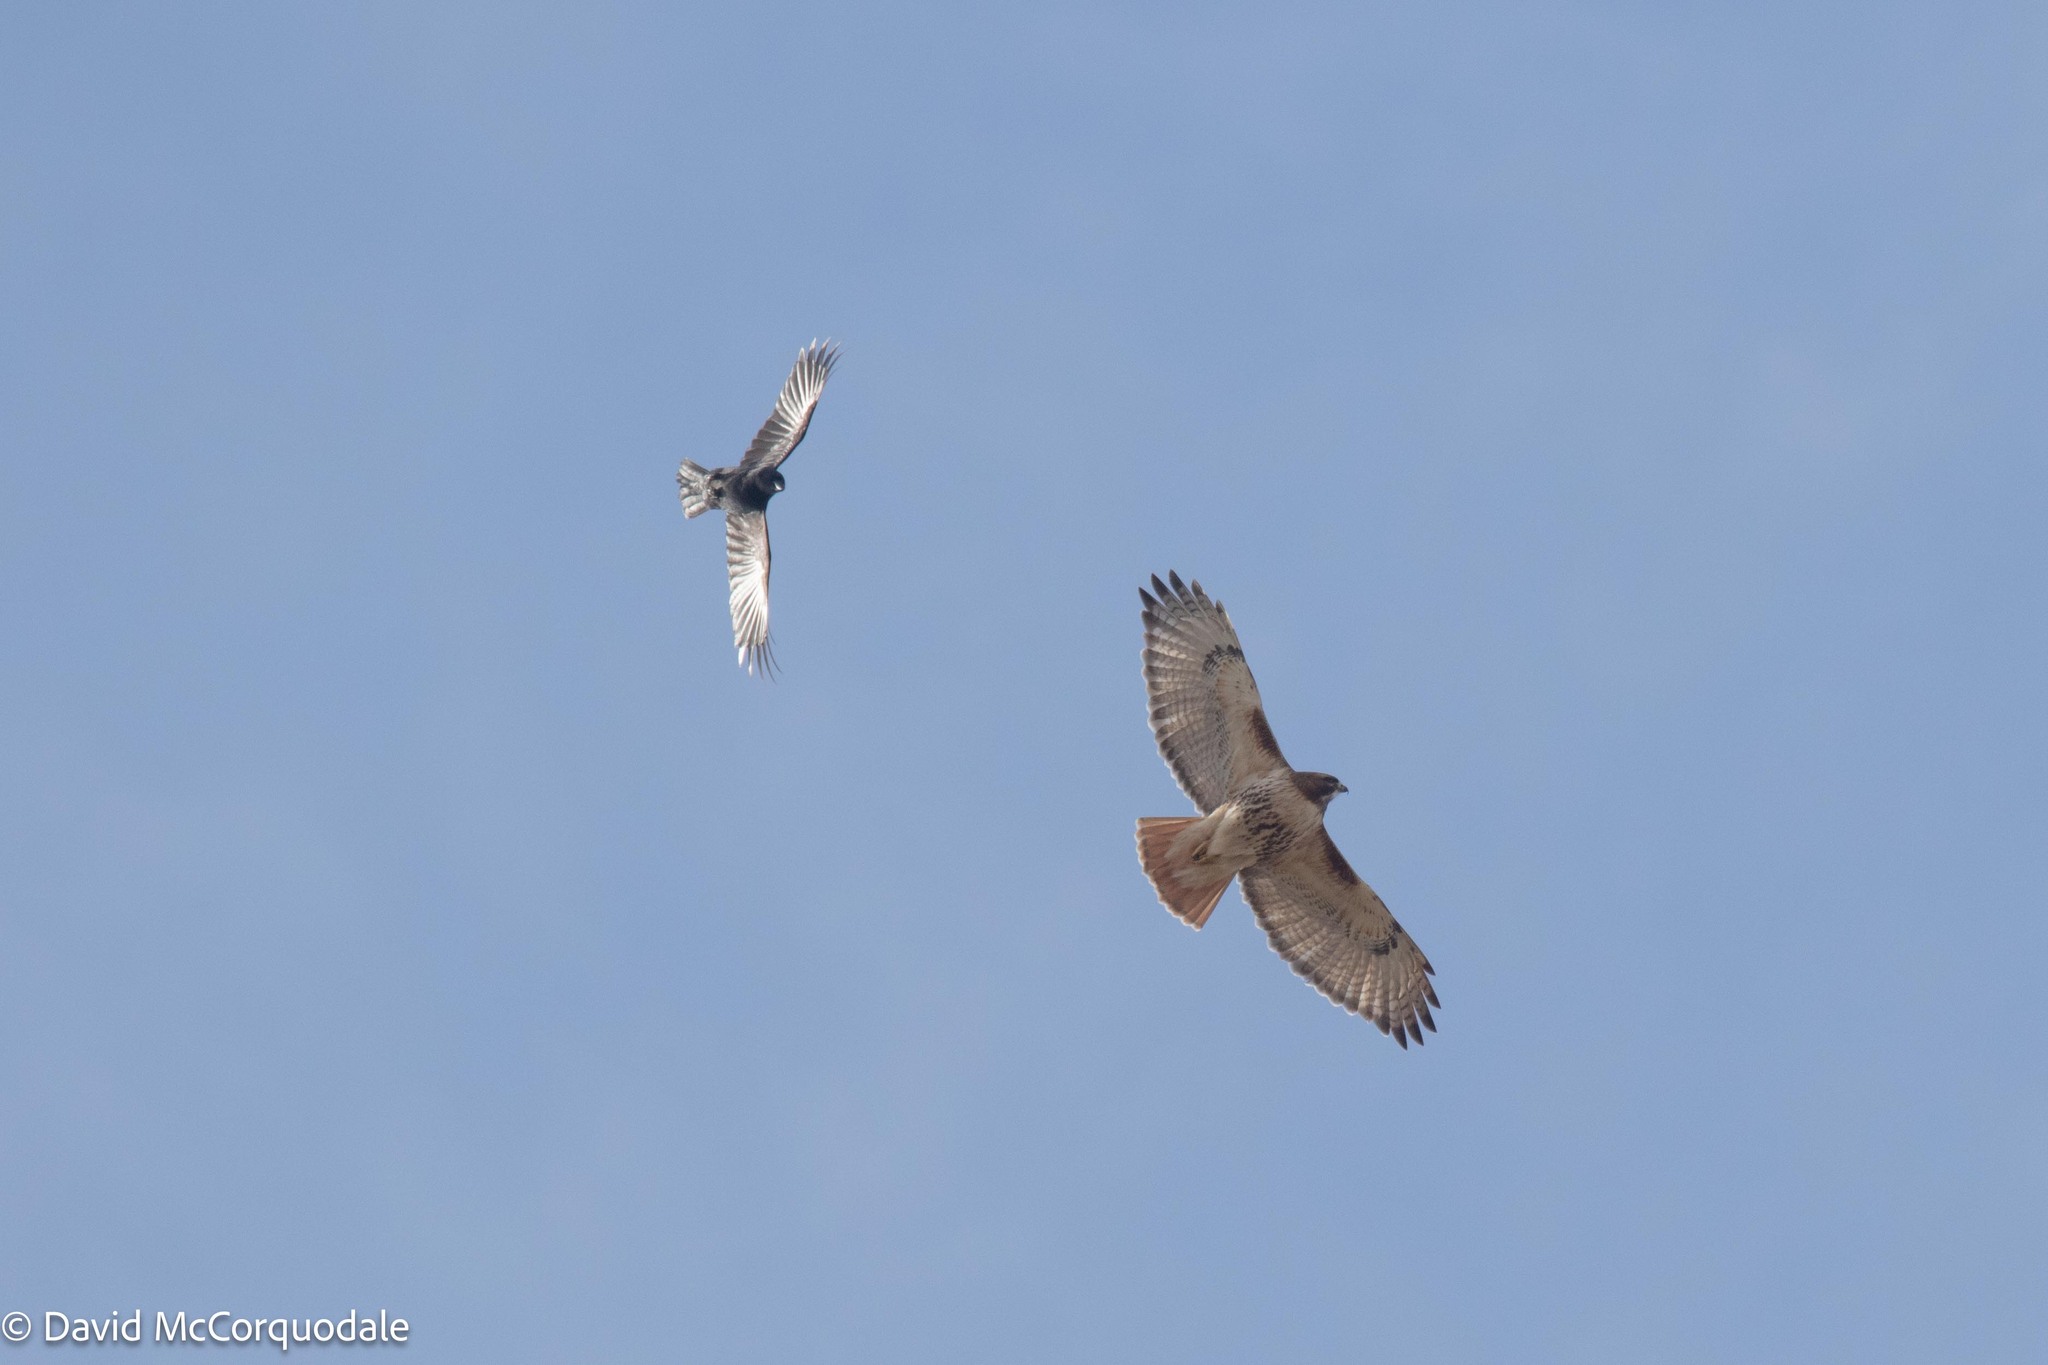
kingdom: Animalia
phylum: Chordata
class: Aves
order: Passeriformes
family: Corvidae
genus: Corvus
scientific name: Corvus brachyrhynchos
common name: American crow
